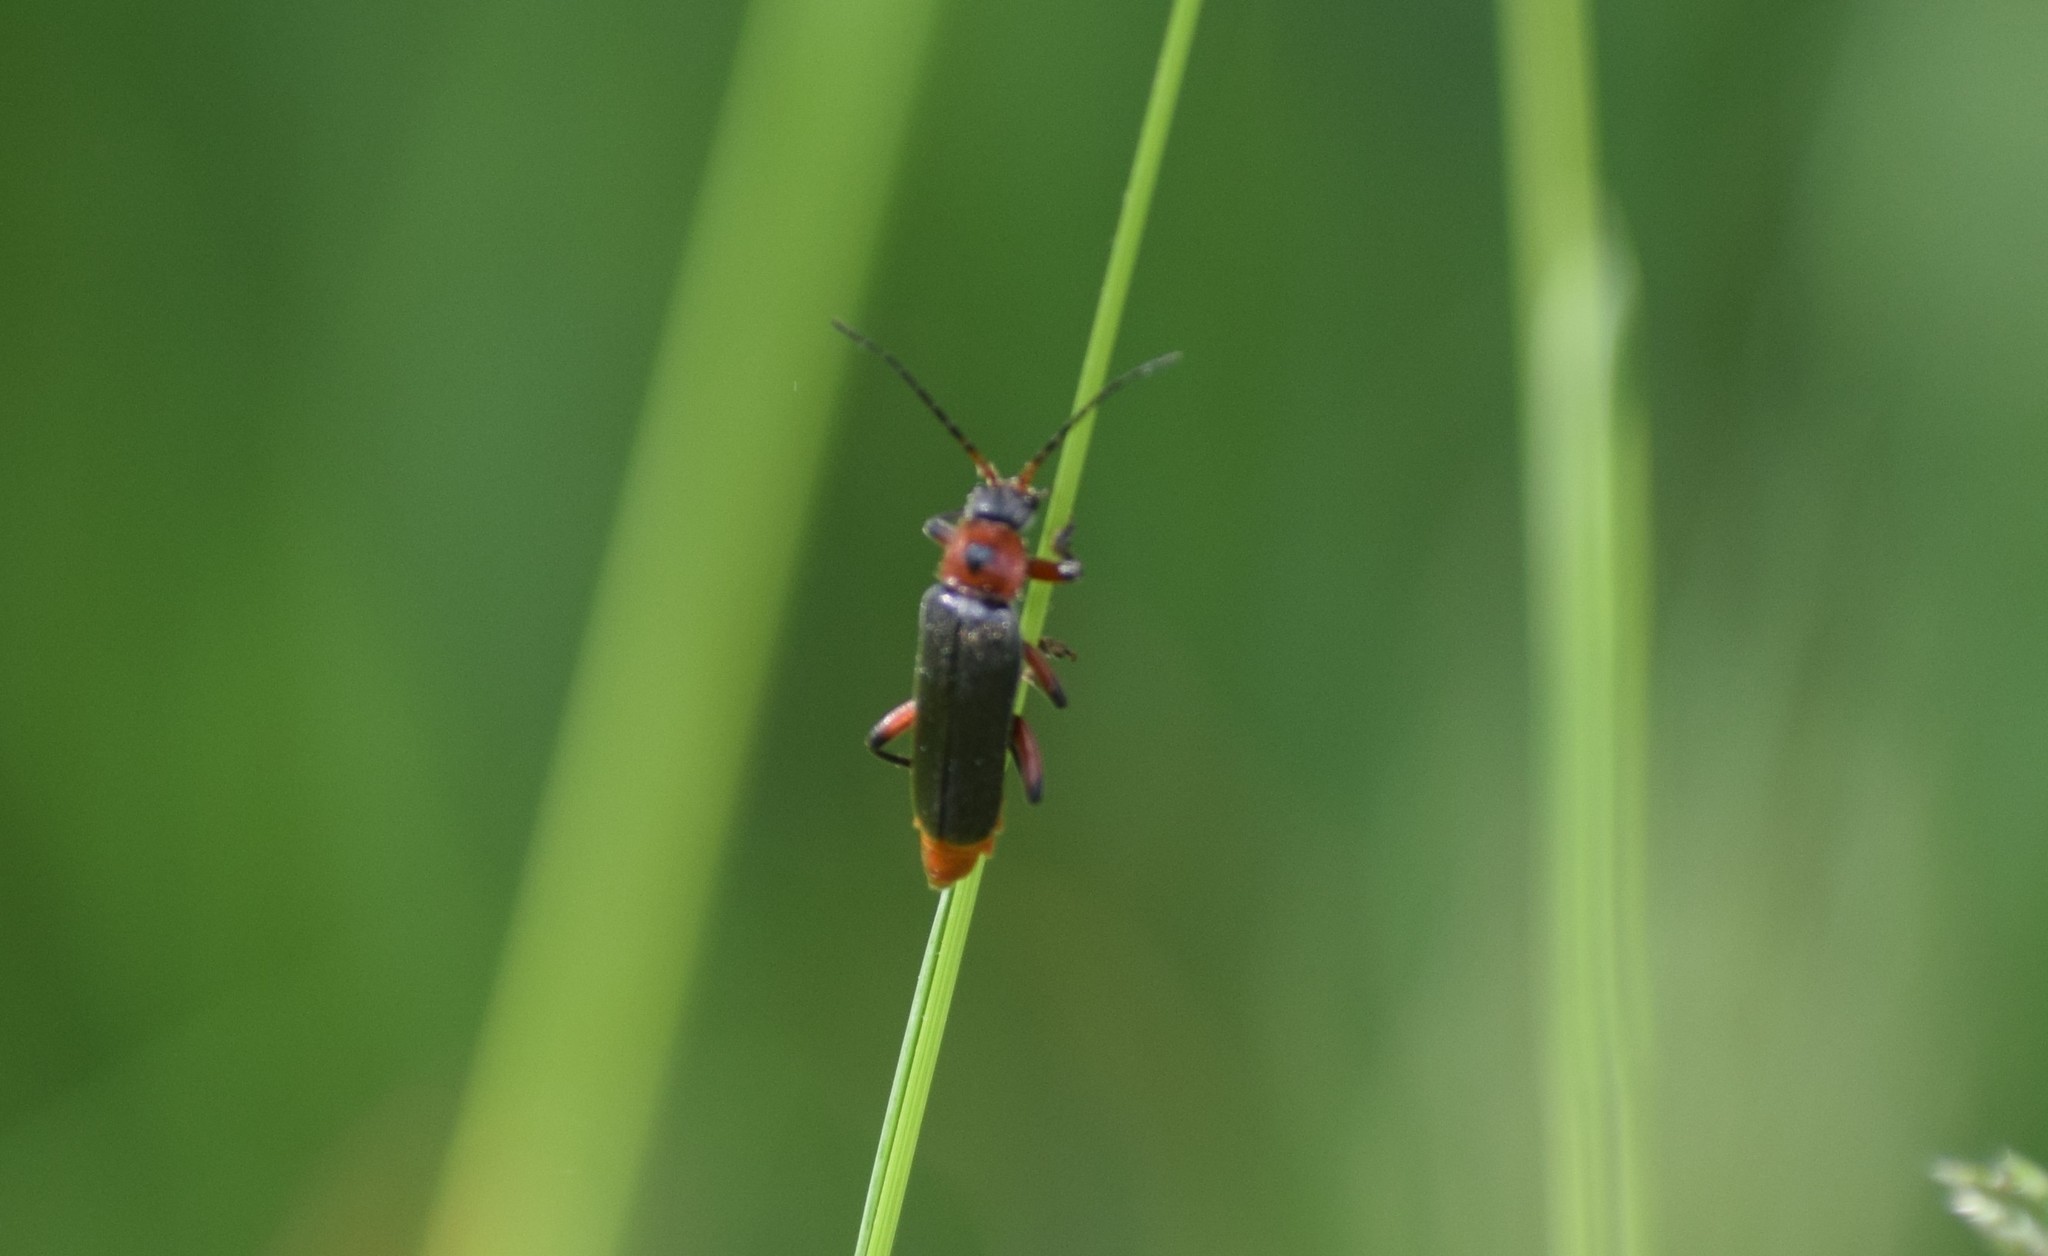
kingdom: Animalia
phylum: Arthropoda
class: Insecta
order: Coleoptera
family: Cantharidae
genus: Cantharis
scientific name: Cantharis rustica
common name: Soldier beetle
